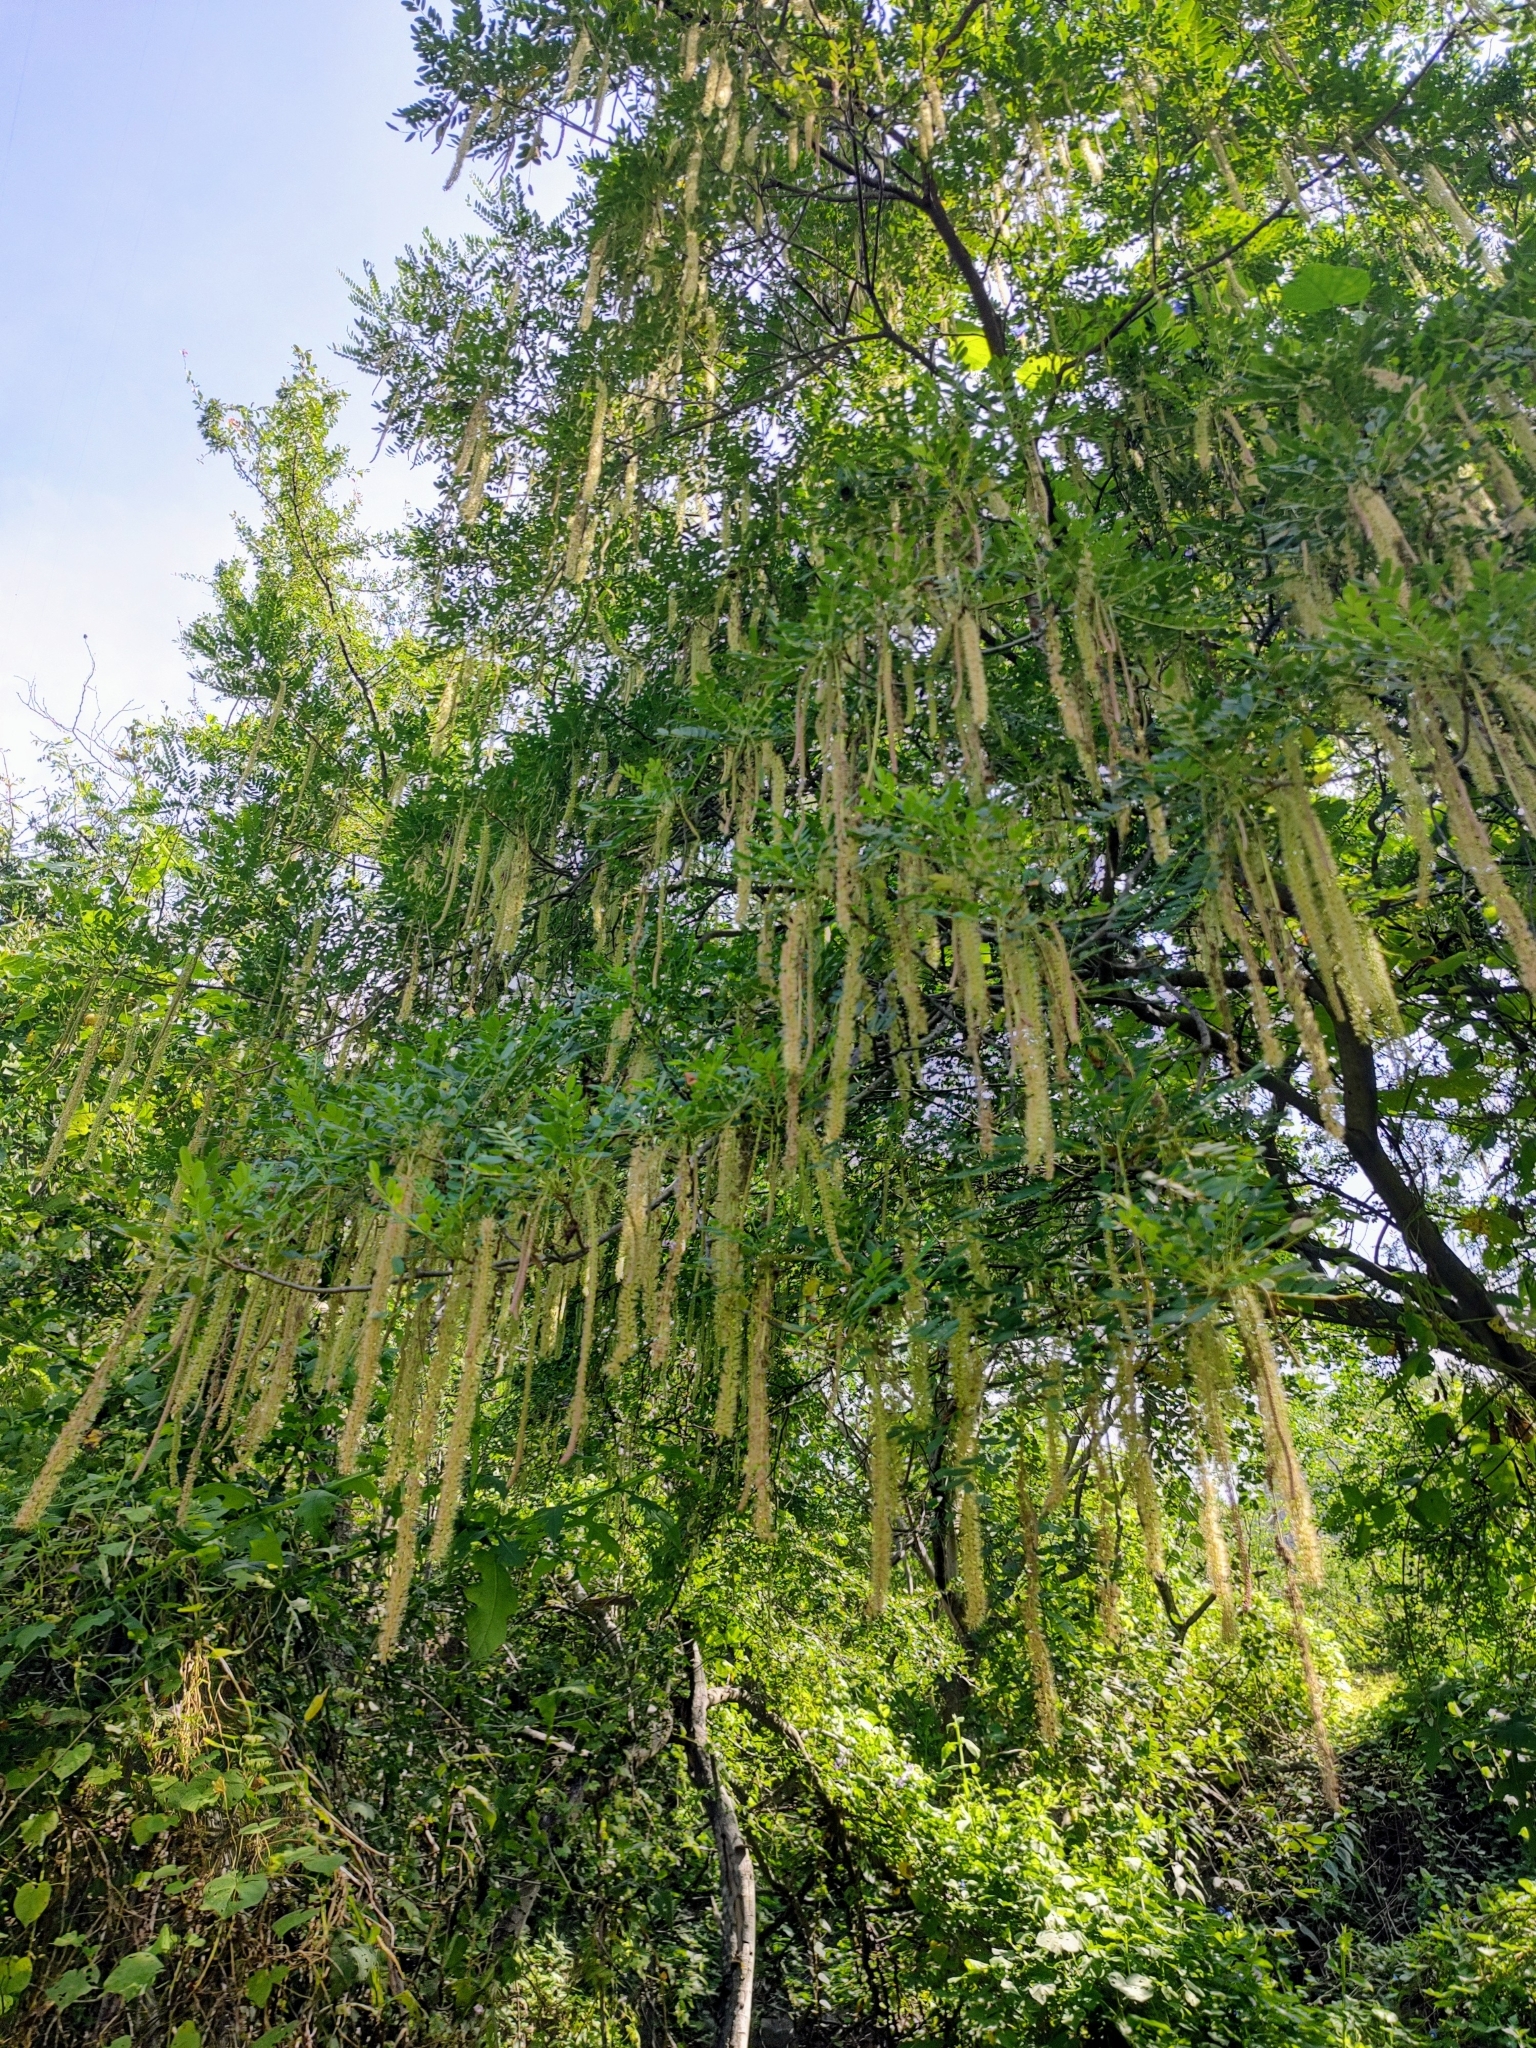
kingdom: Plantae
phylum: Tracheophyta
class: Magnoliopsida
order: Picramniales
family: Picramniaceae
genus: Alvaradoa
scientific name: Alvaradoa amorphoides
